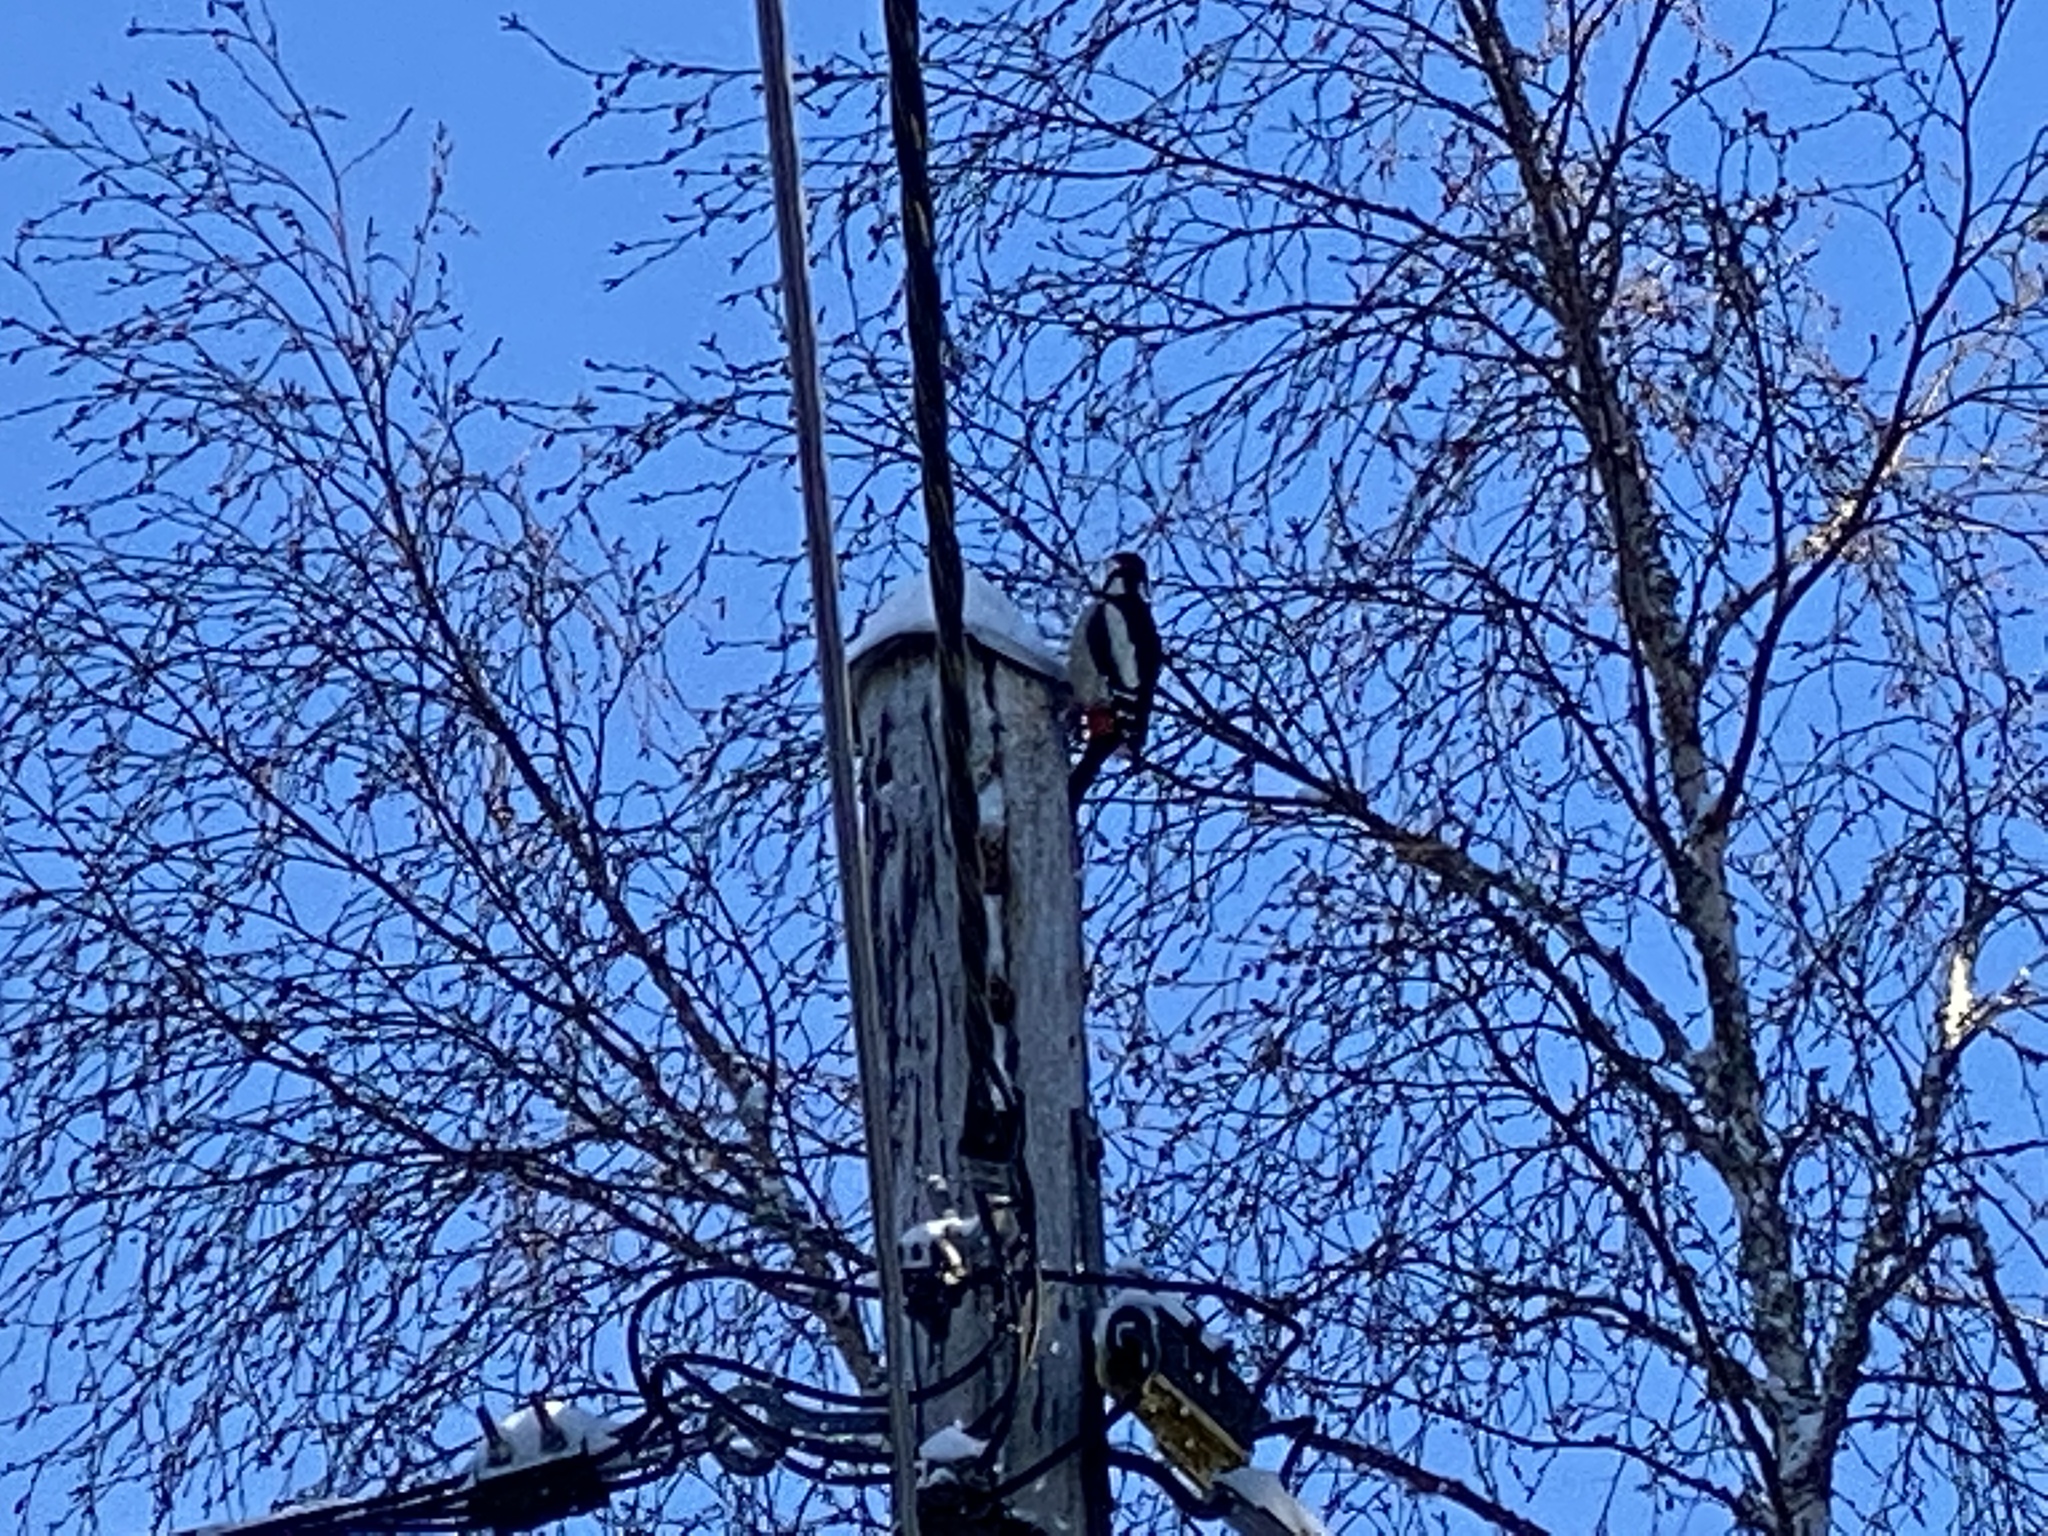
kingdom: Animalia
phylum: Chordata
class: Aves
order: Piciformes
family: Picidae
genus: Dendrocopos
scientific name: Dendrocopos major
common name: Great spotted woodpecker
